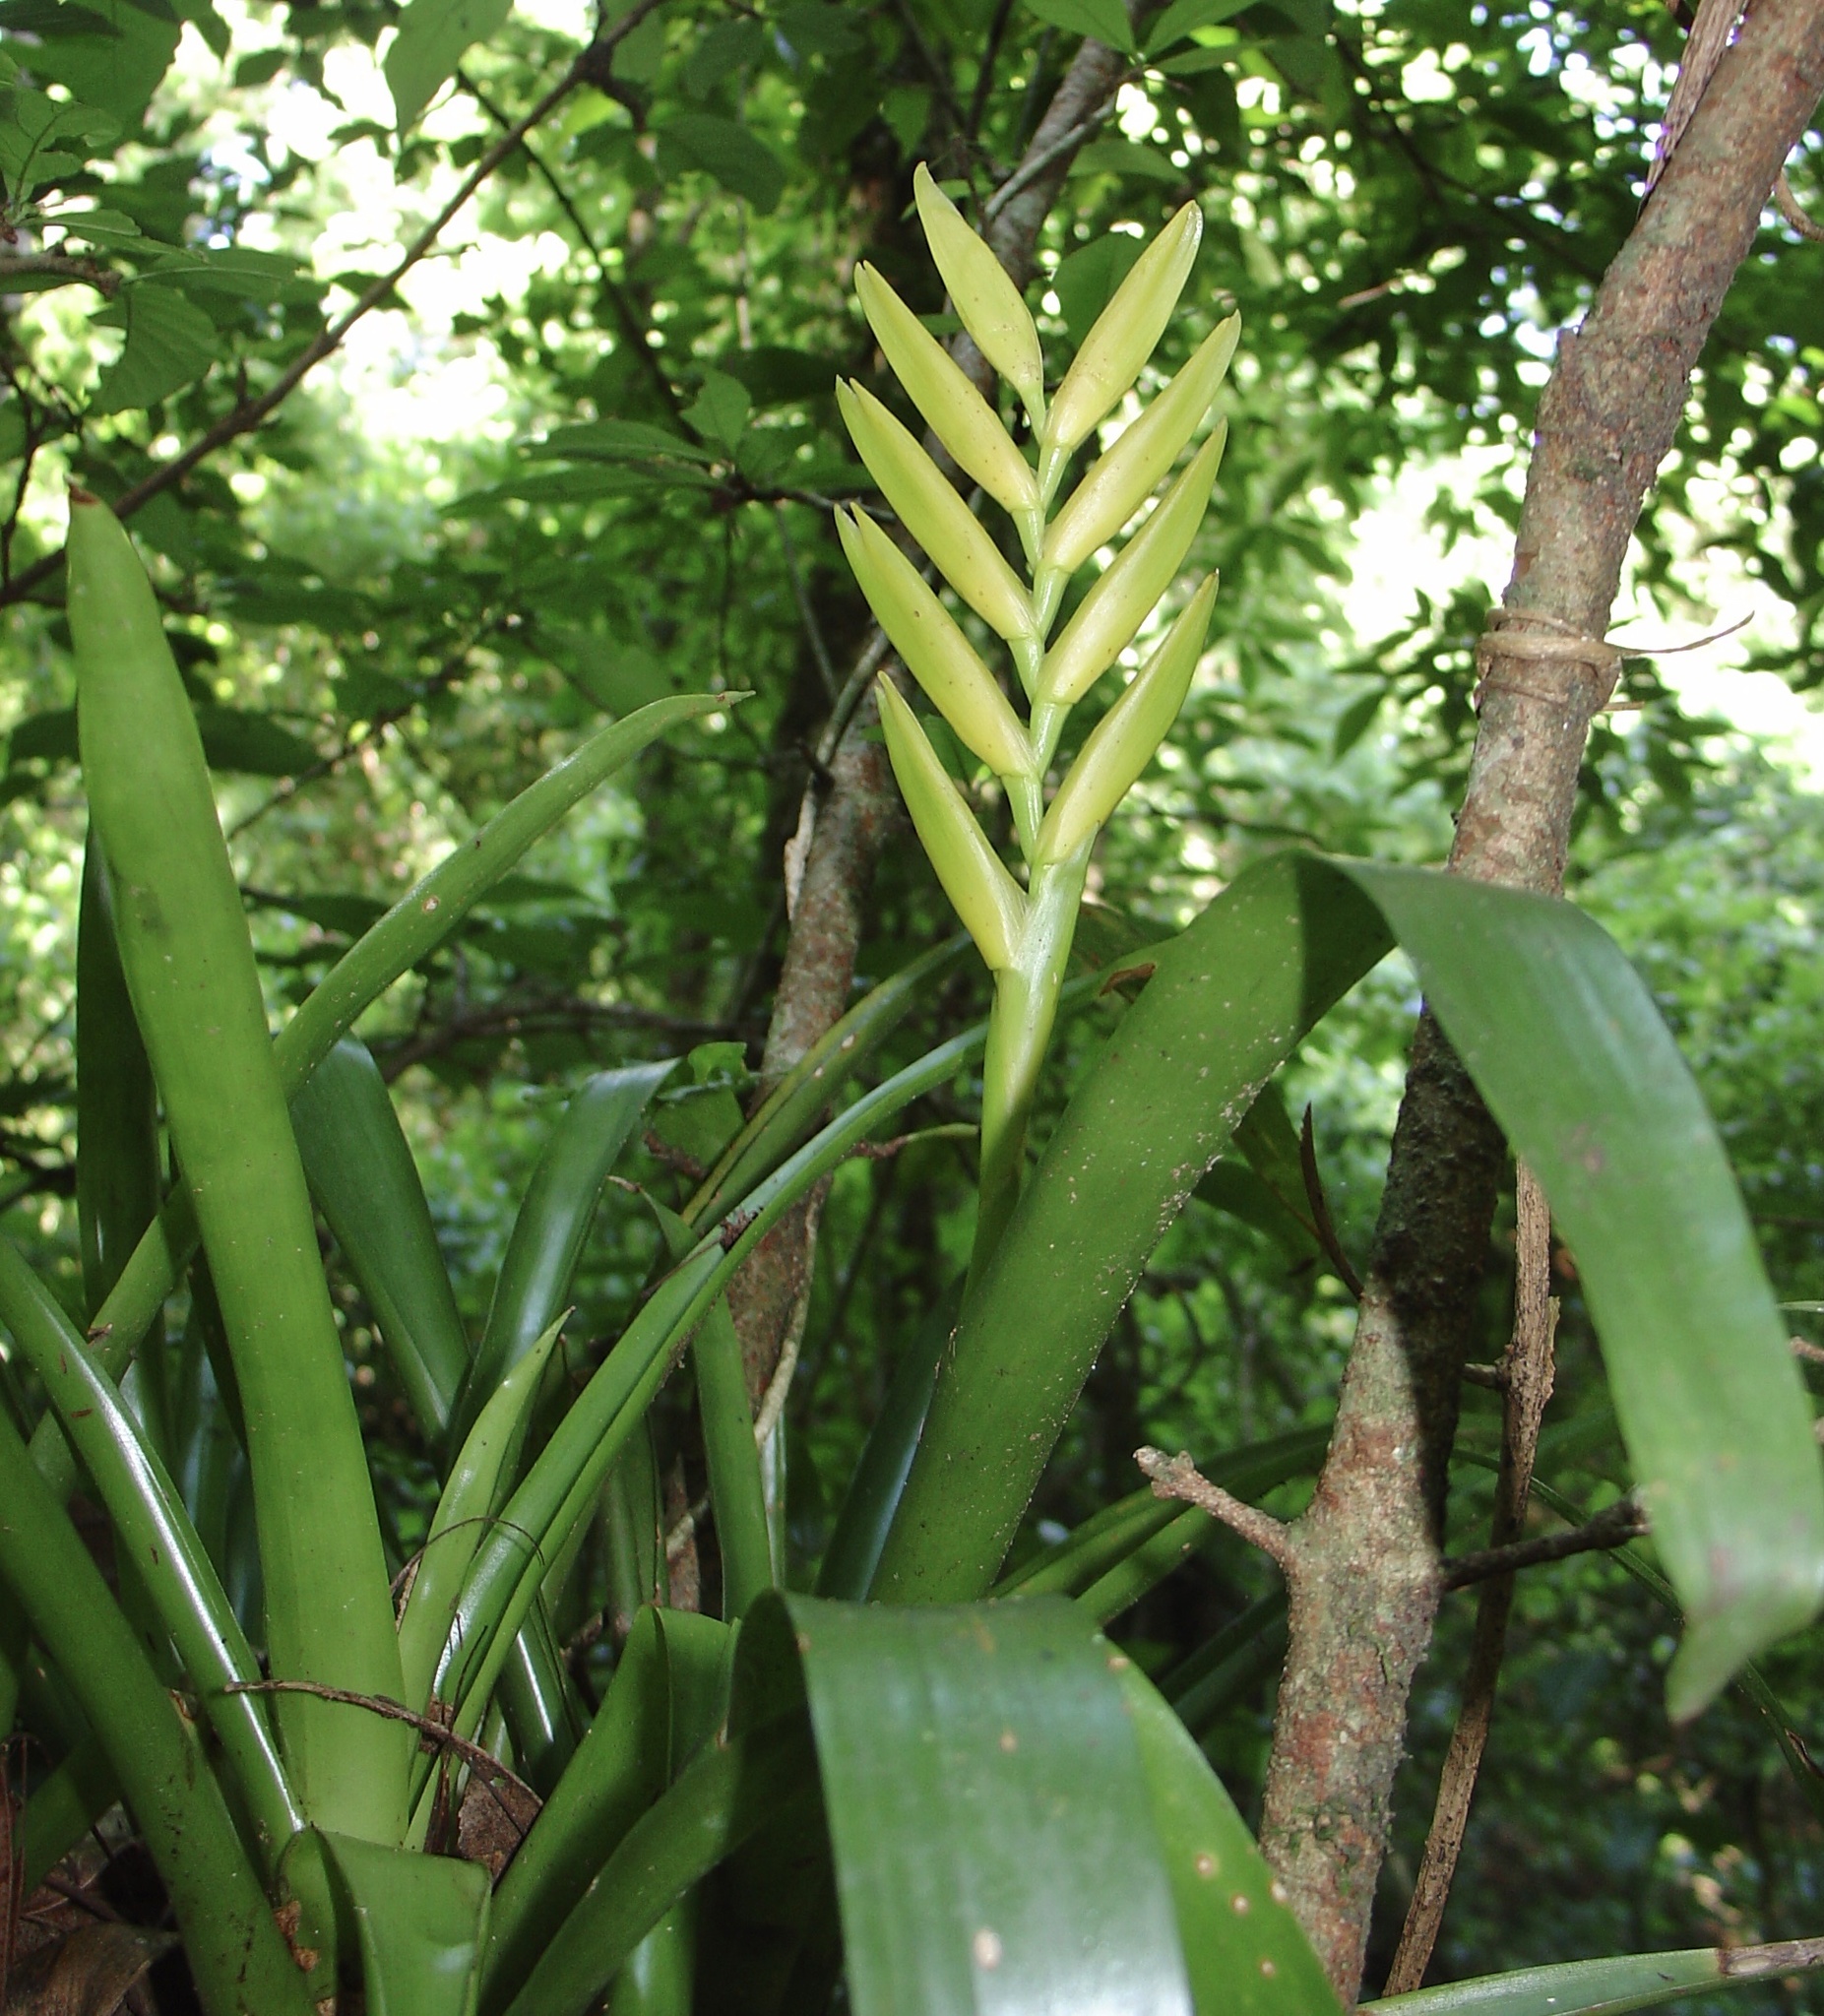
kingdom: Plantae
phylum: Tracheophyta
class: Liliopsida
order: Poales
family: Bromeliaceae
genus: Vriesea
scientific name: Vriesea maxoniana
